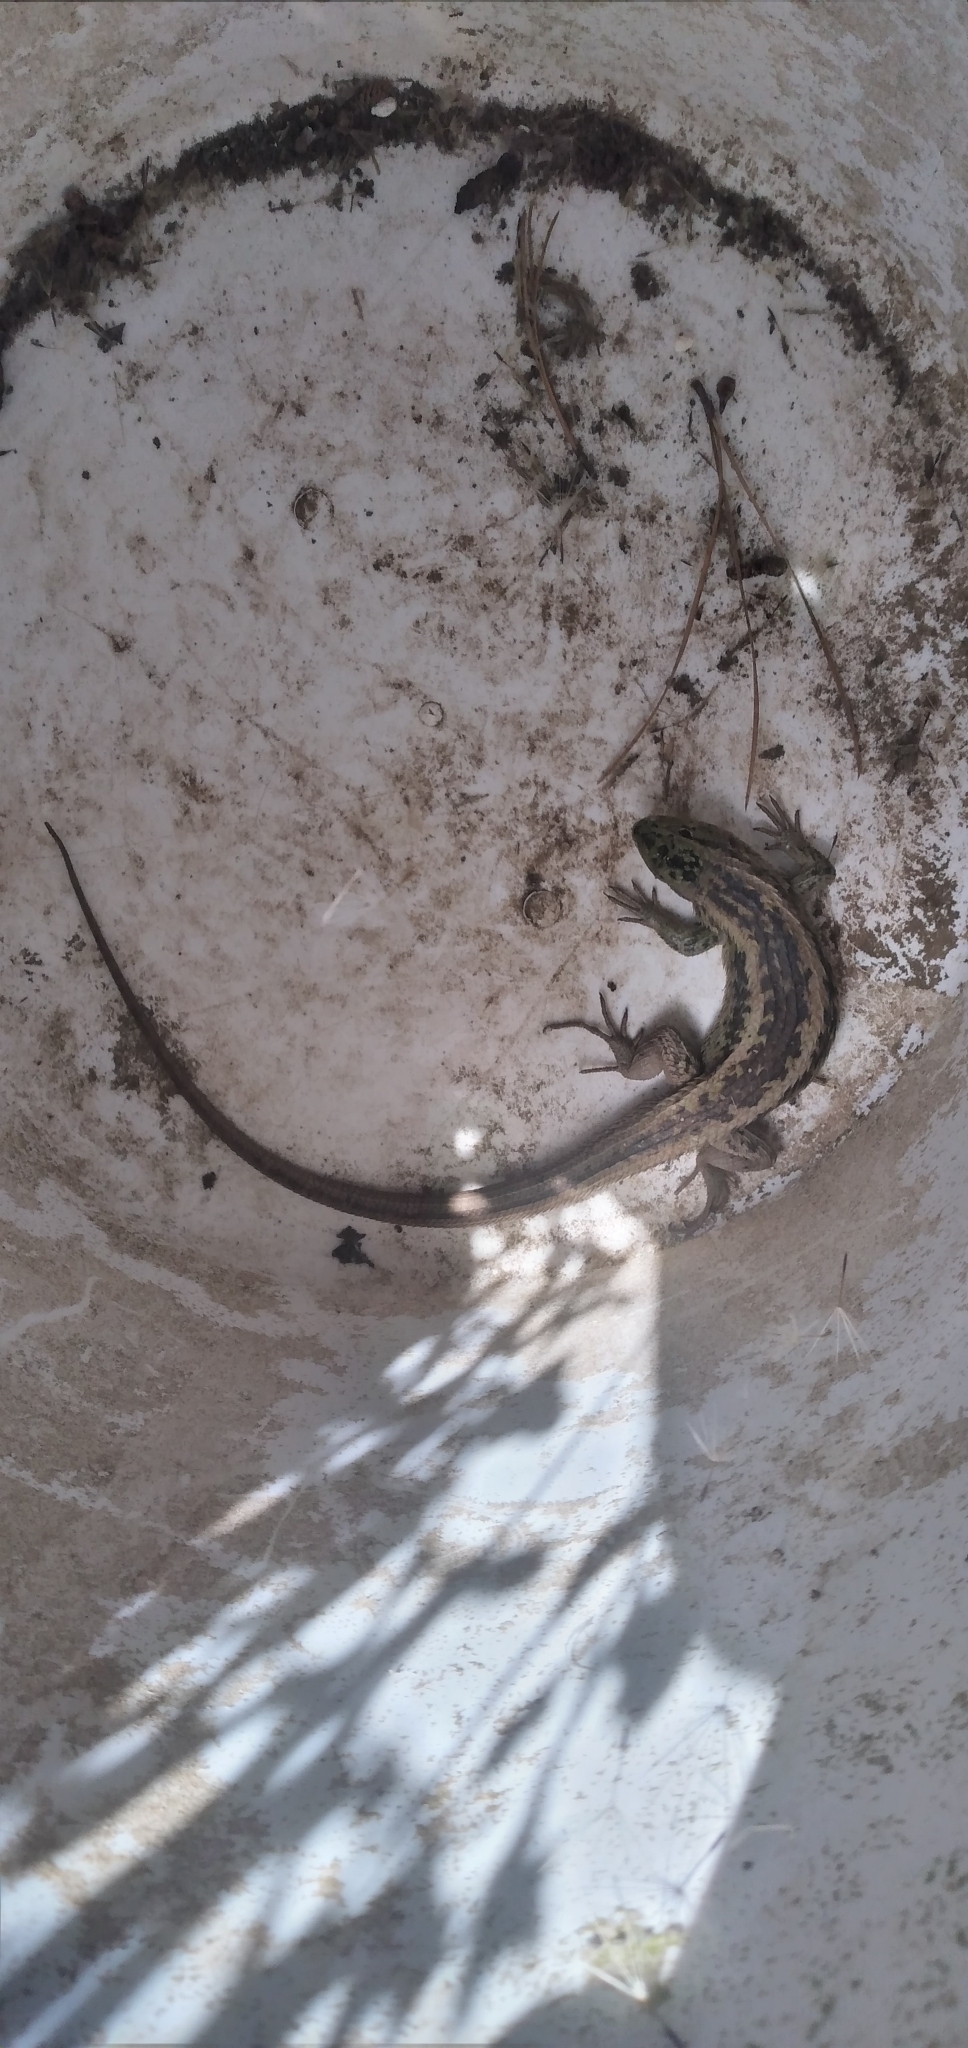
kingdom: Animalia
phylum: Chordata
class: Squamata
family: Liolaemidae
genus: Liolaemus
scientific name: Liolaemus chiliensis
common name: Chilean tree iguana
